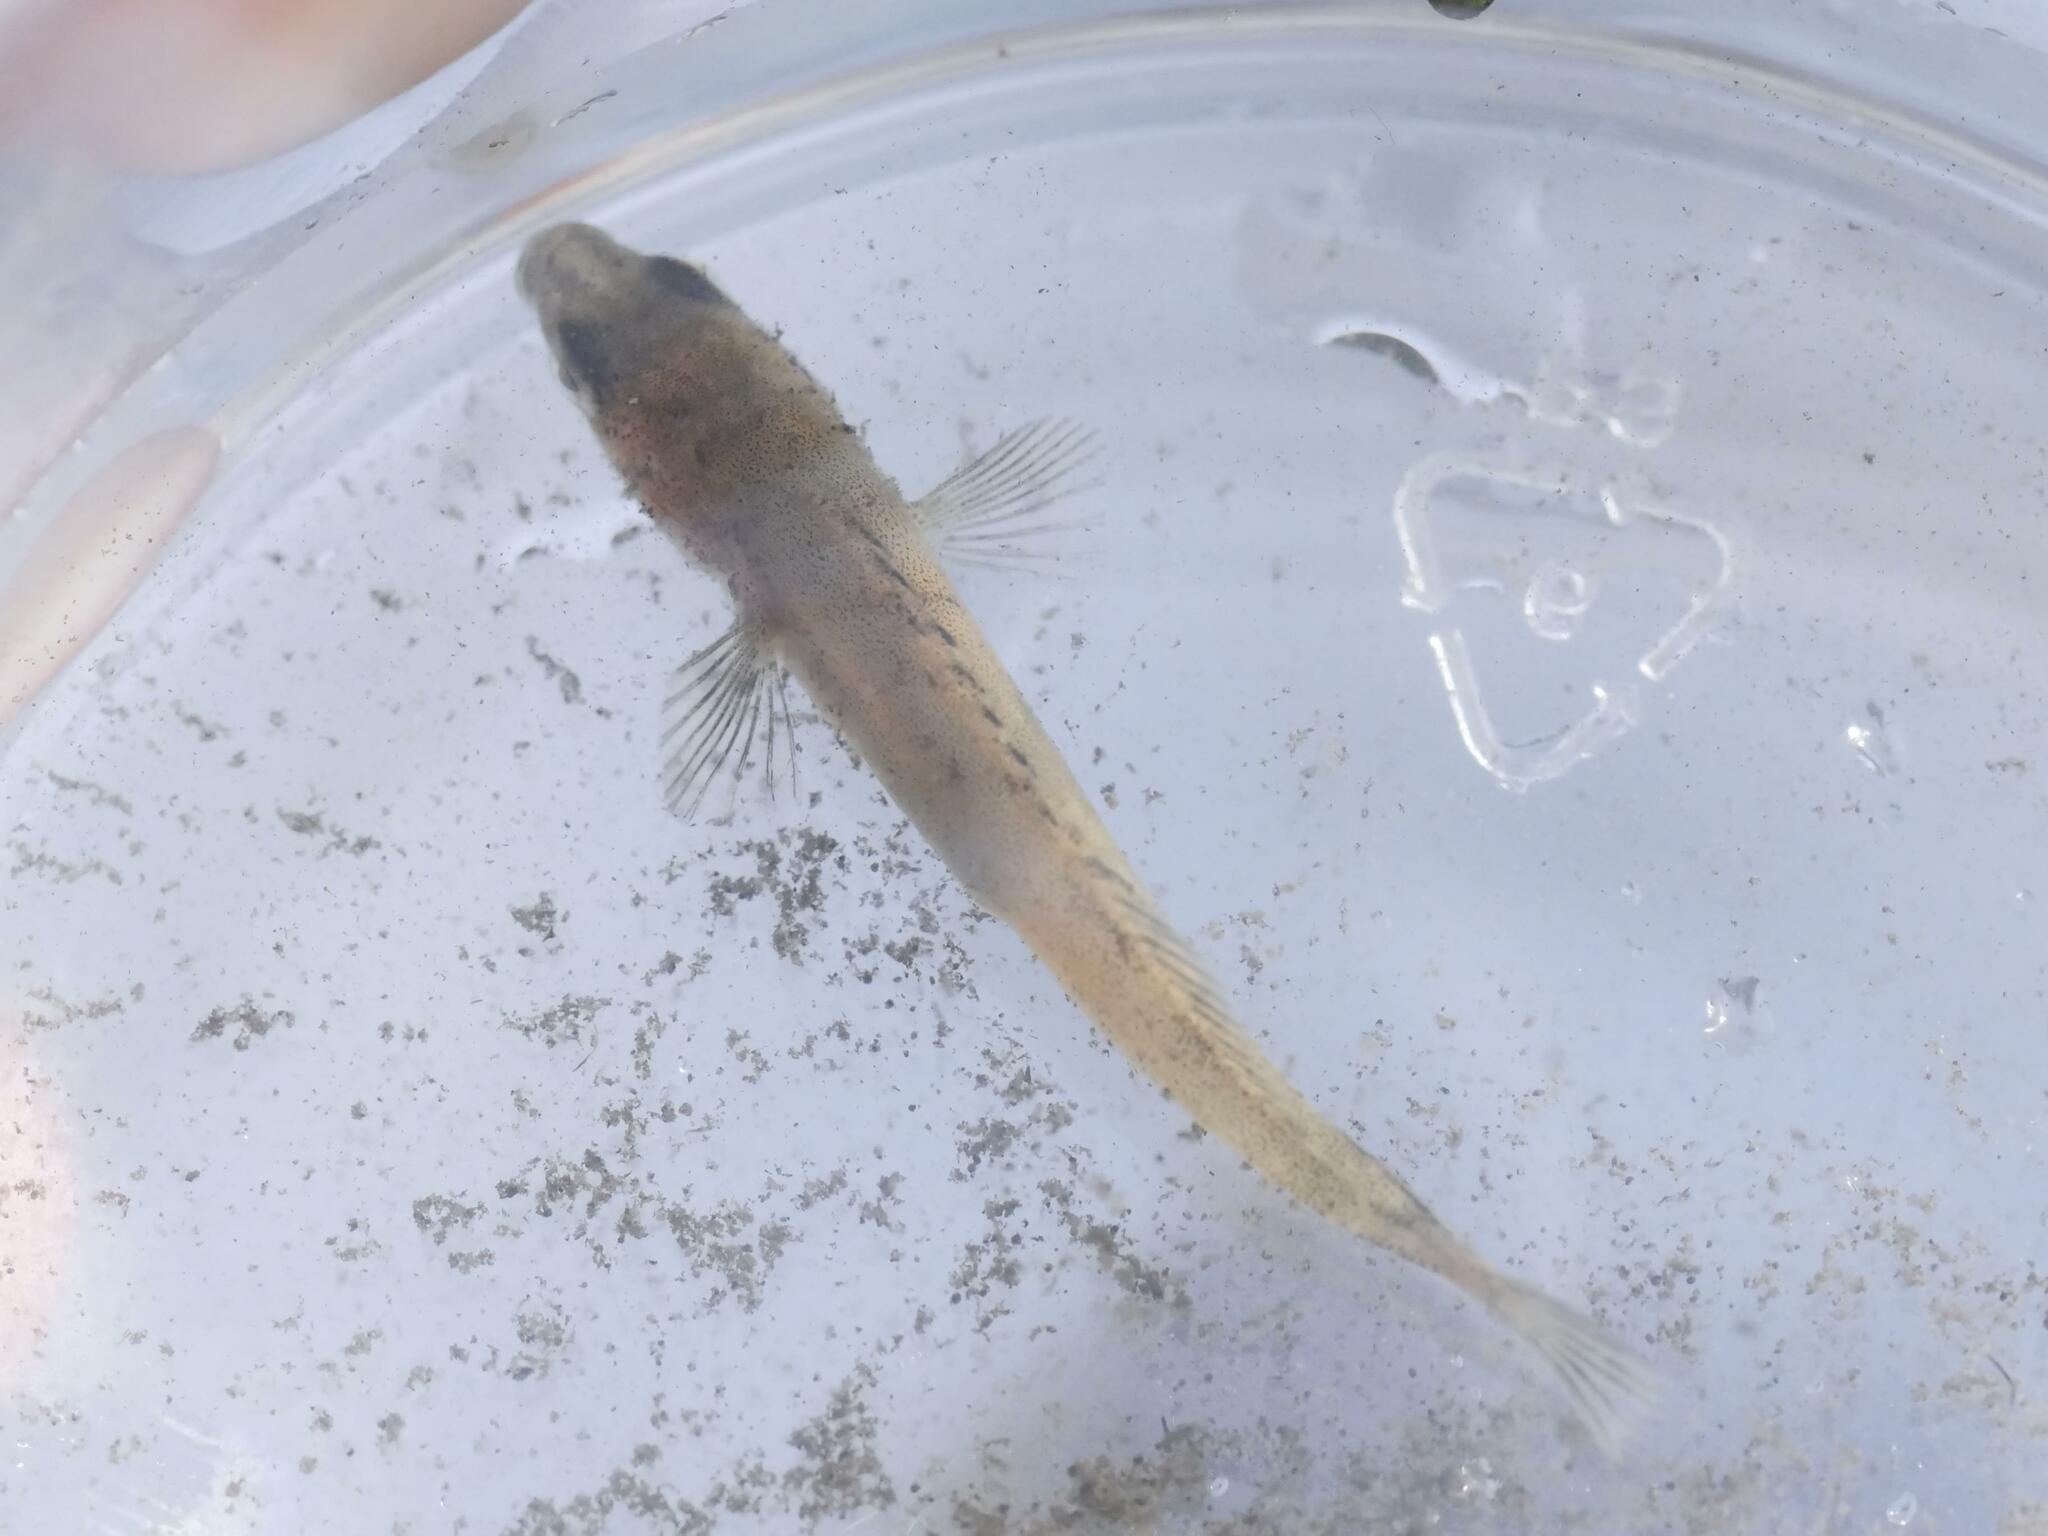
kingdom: Animalia
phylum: Chordata
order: Gasterosteiformes
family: Gasterosteidae
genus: Pungitius
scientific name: Pungitius pungitius
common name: Nine-spined stickleback
